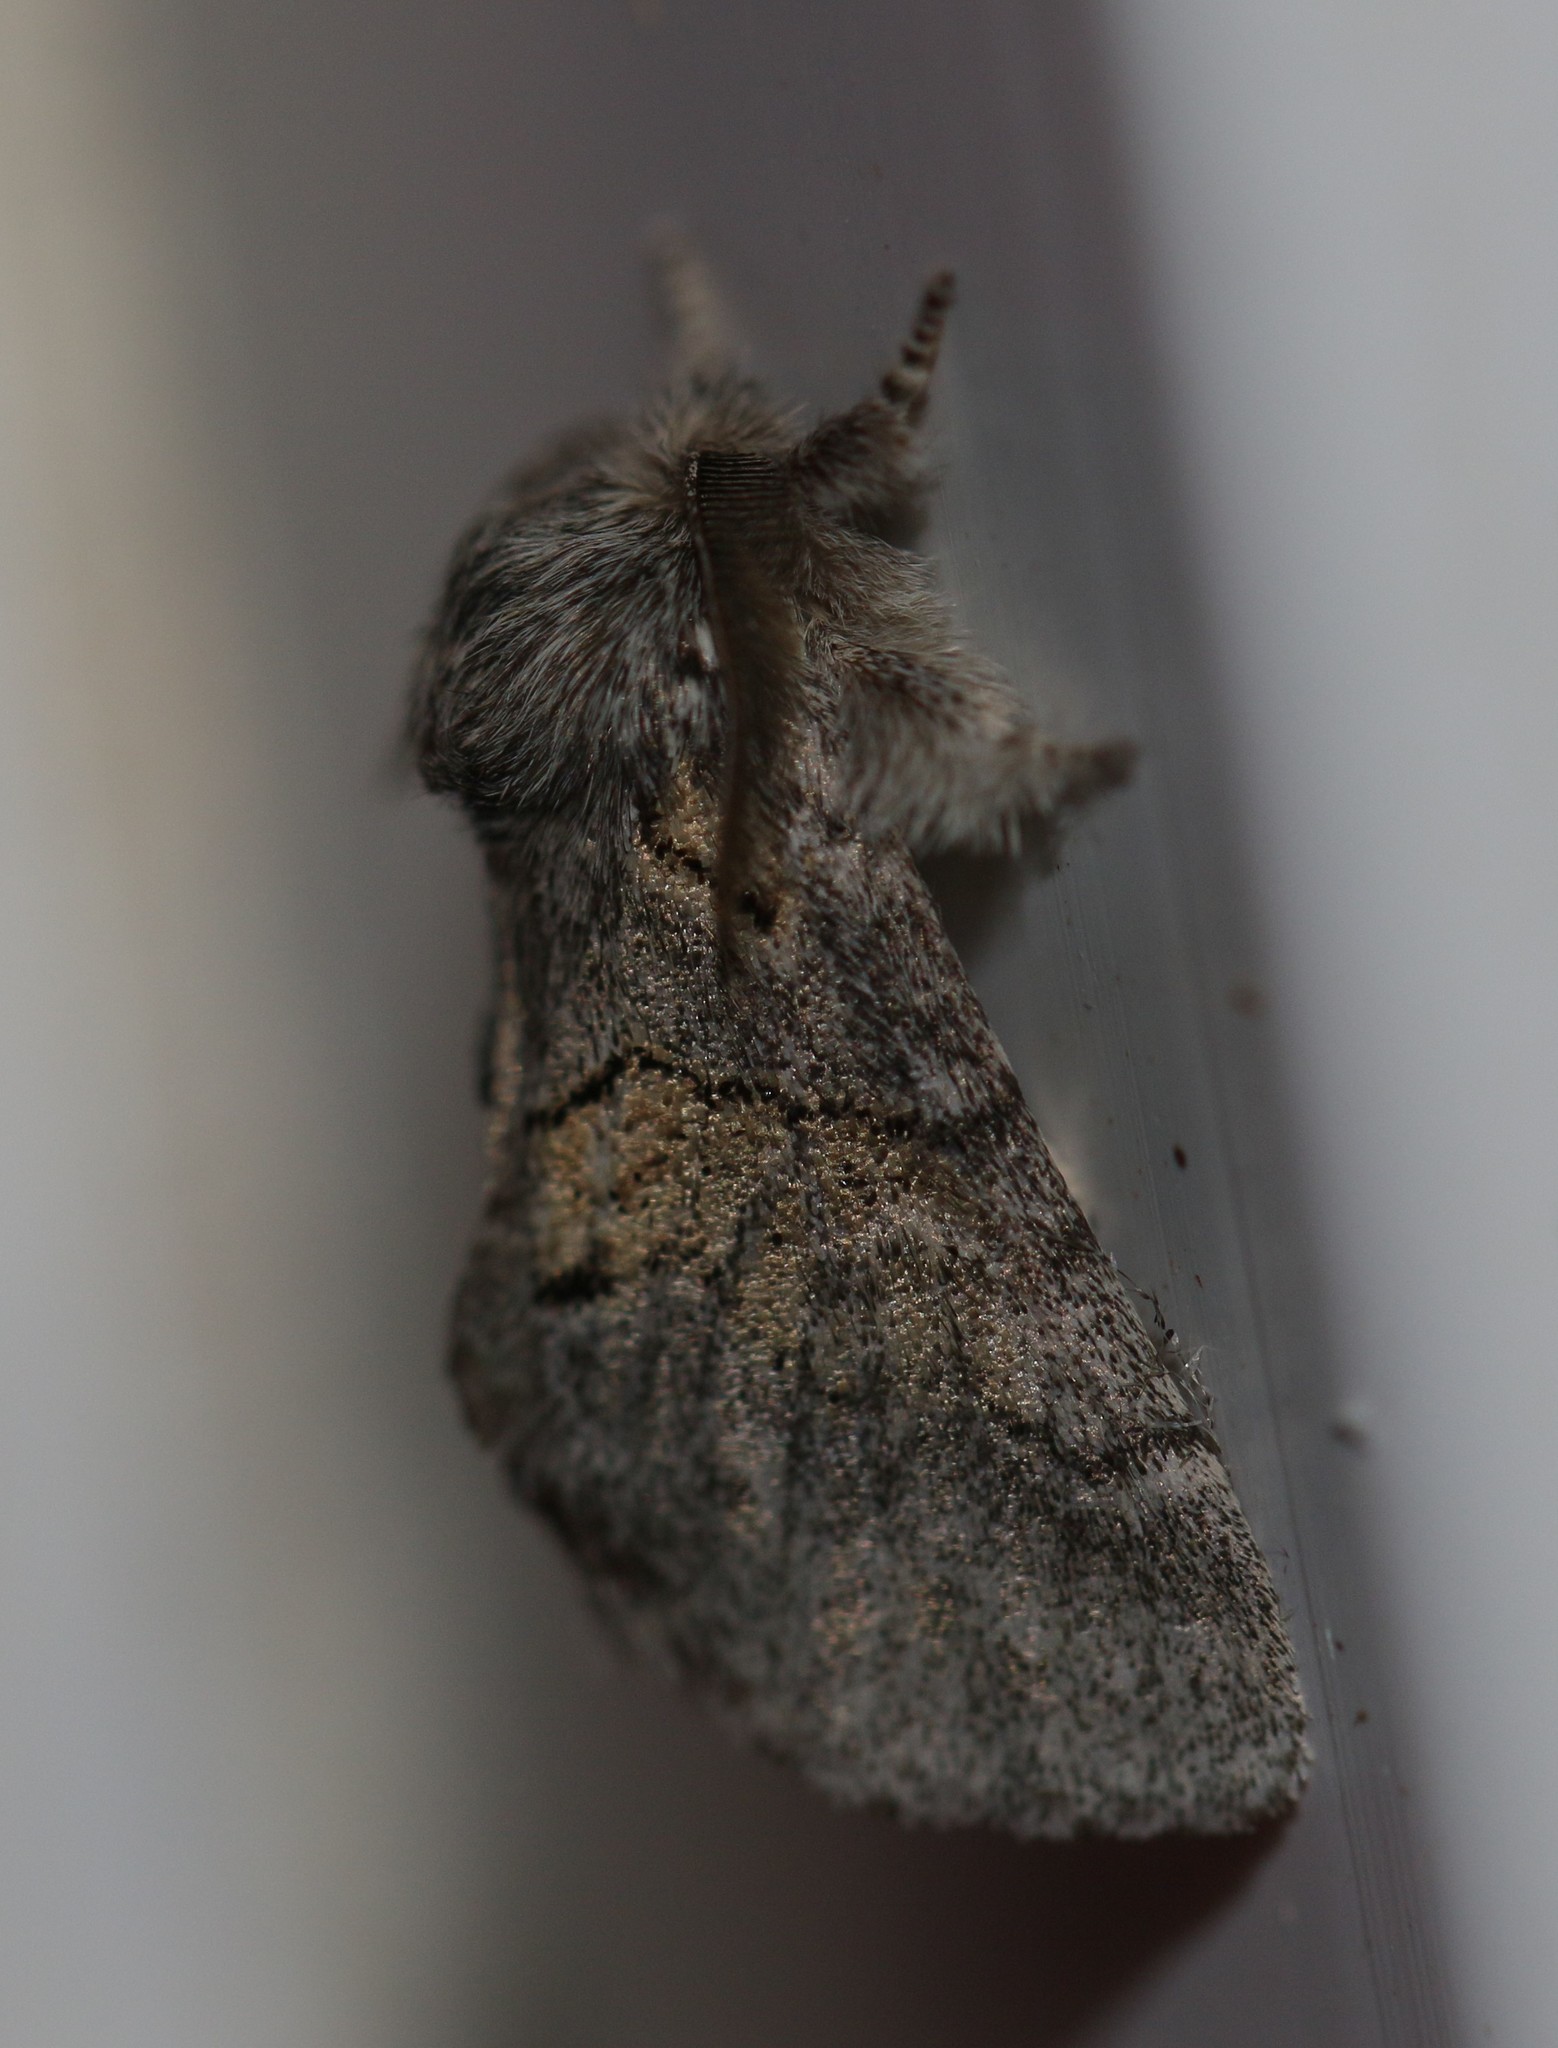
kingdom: Animalia
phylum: Arthropoda
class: Insecta
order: Lepidoptera
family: Notodontidae
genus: Gluphisia
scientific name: Gluphisia septentrionis
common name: Common gluphisia
